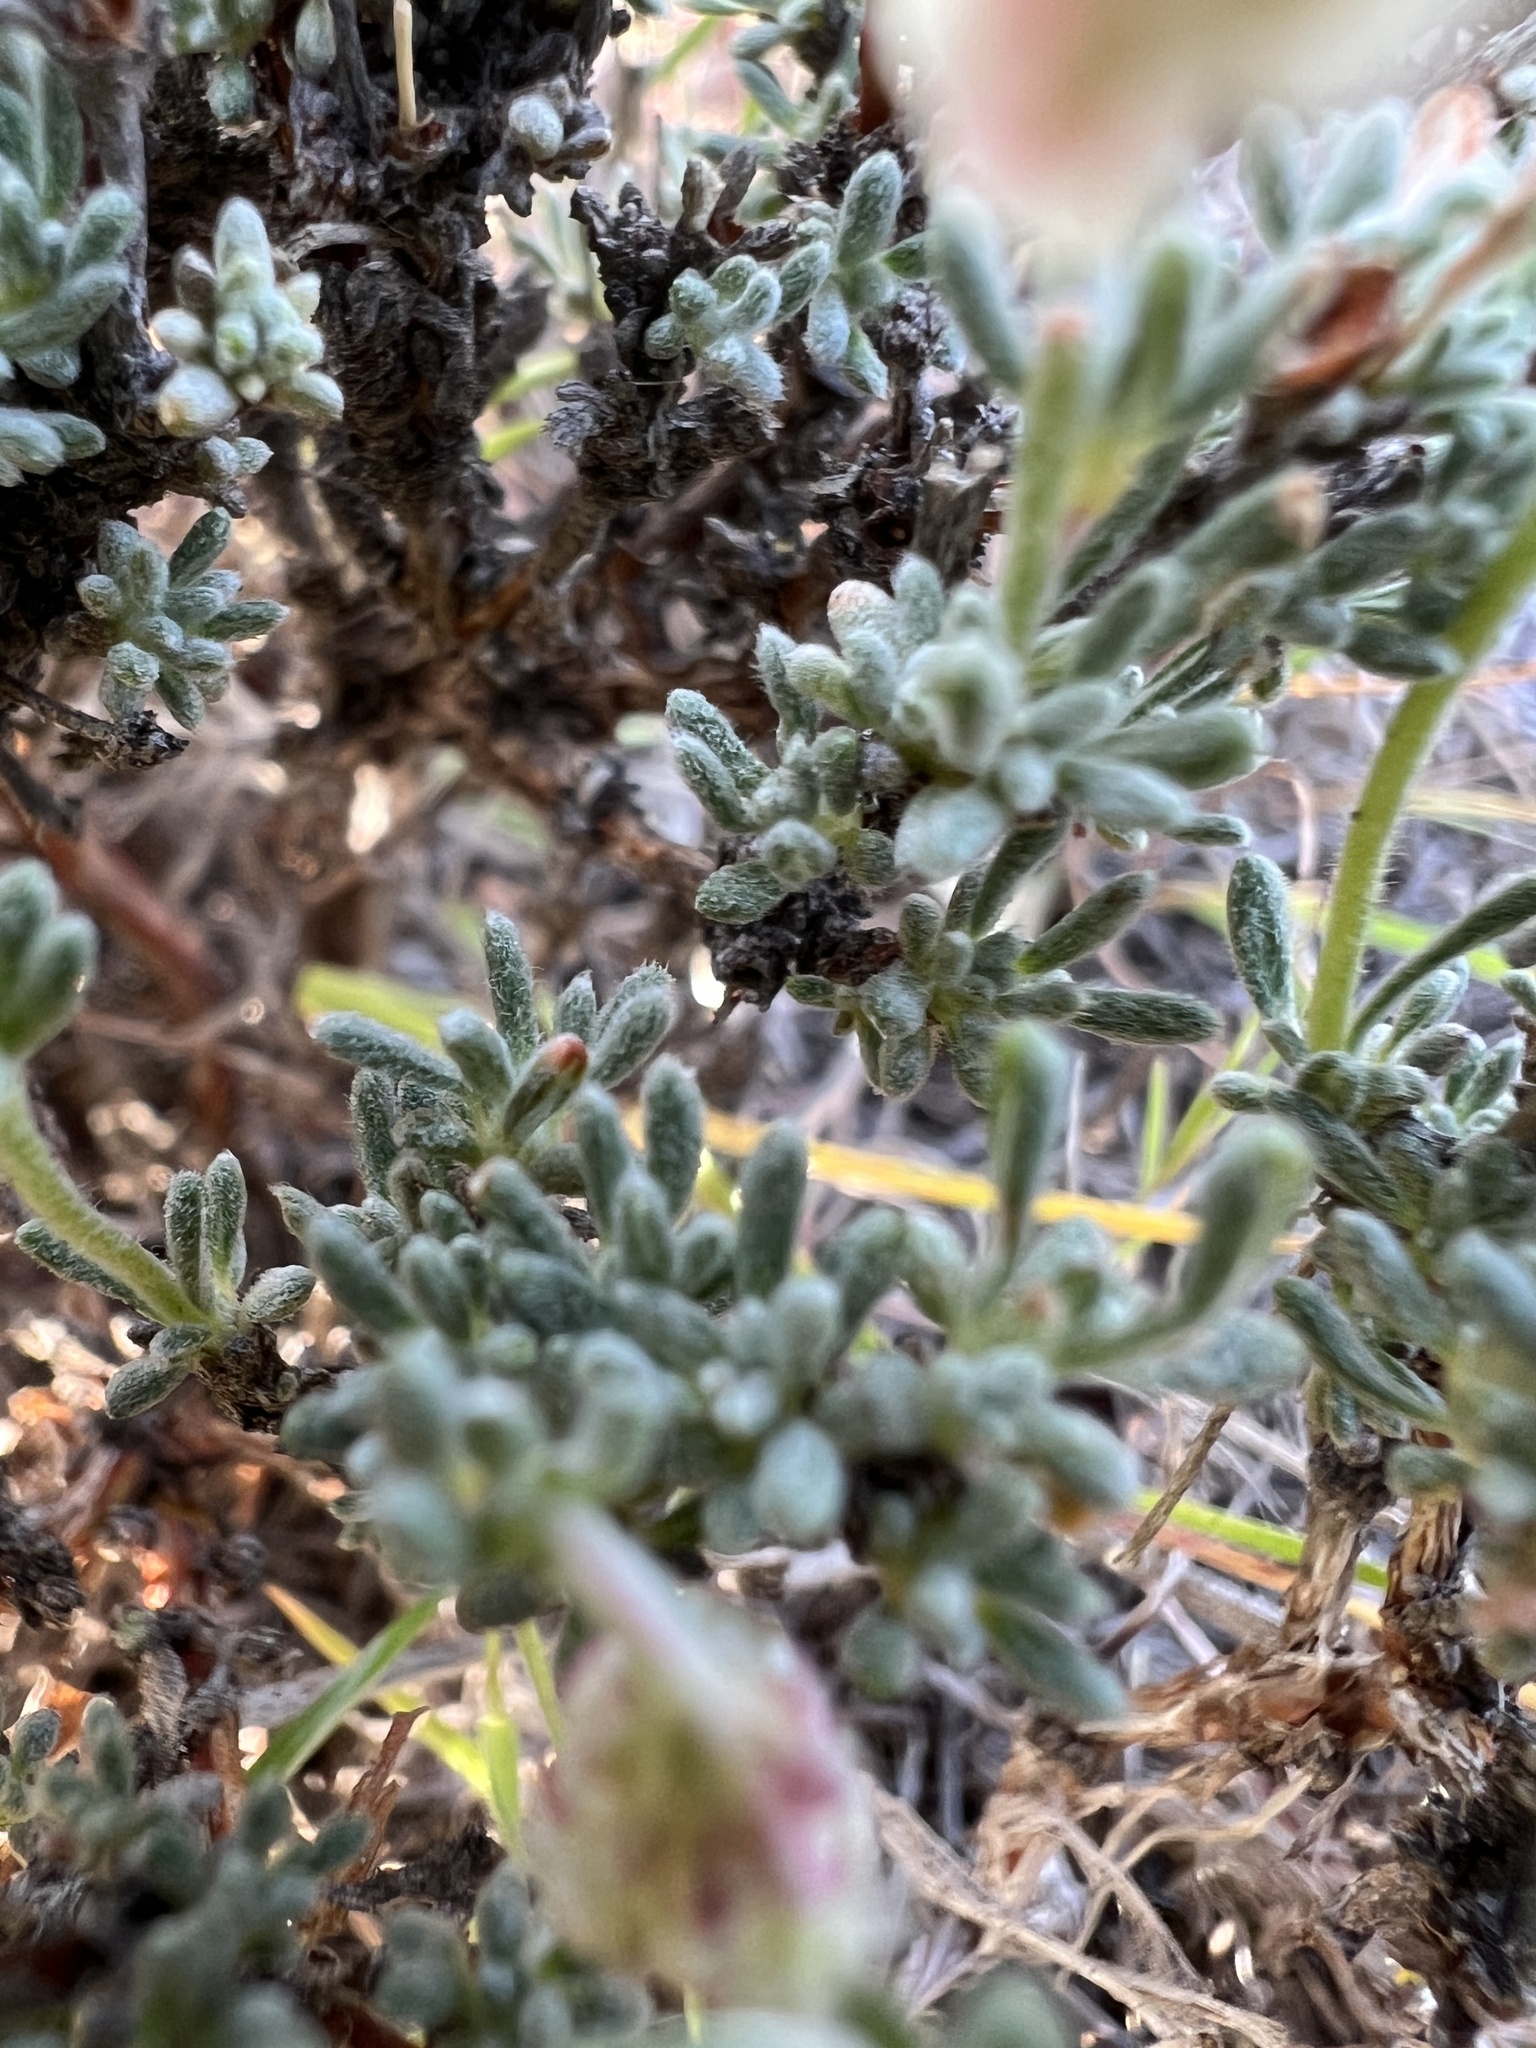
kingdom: Plantae
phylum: Tracheophyta
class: Magnoliopsida
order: Caryophyllales
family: Polygonaceae
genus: Eriogonum
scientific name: Eriogonum thymoides
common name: Thyme-leaf wild buckwheat
